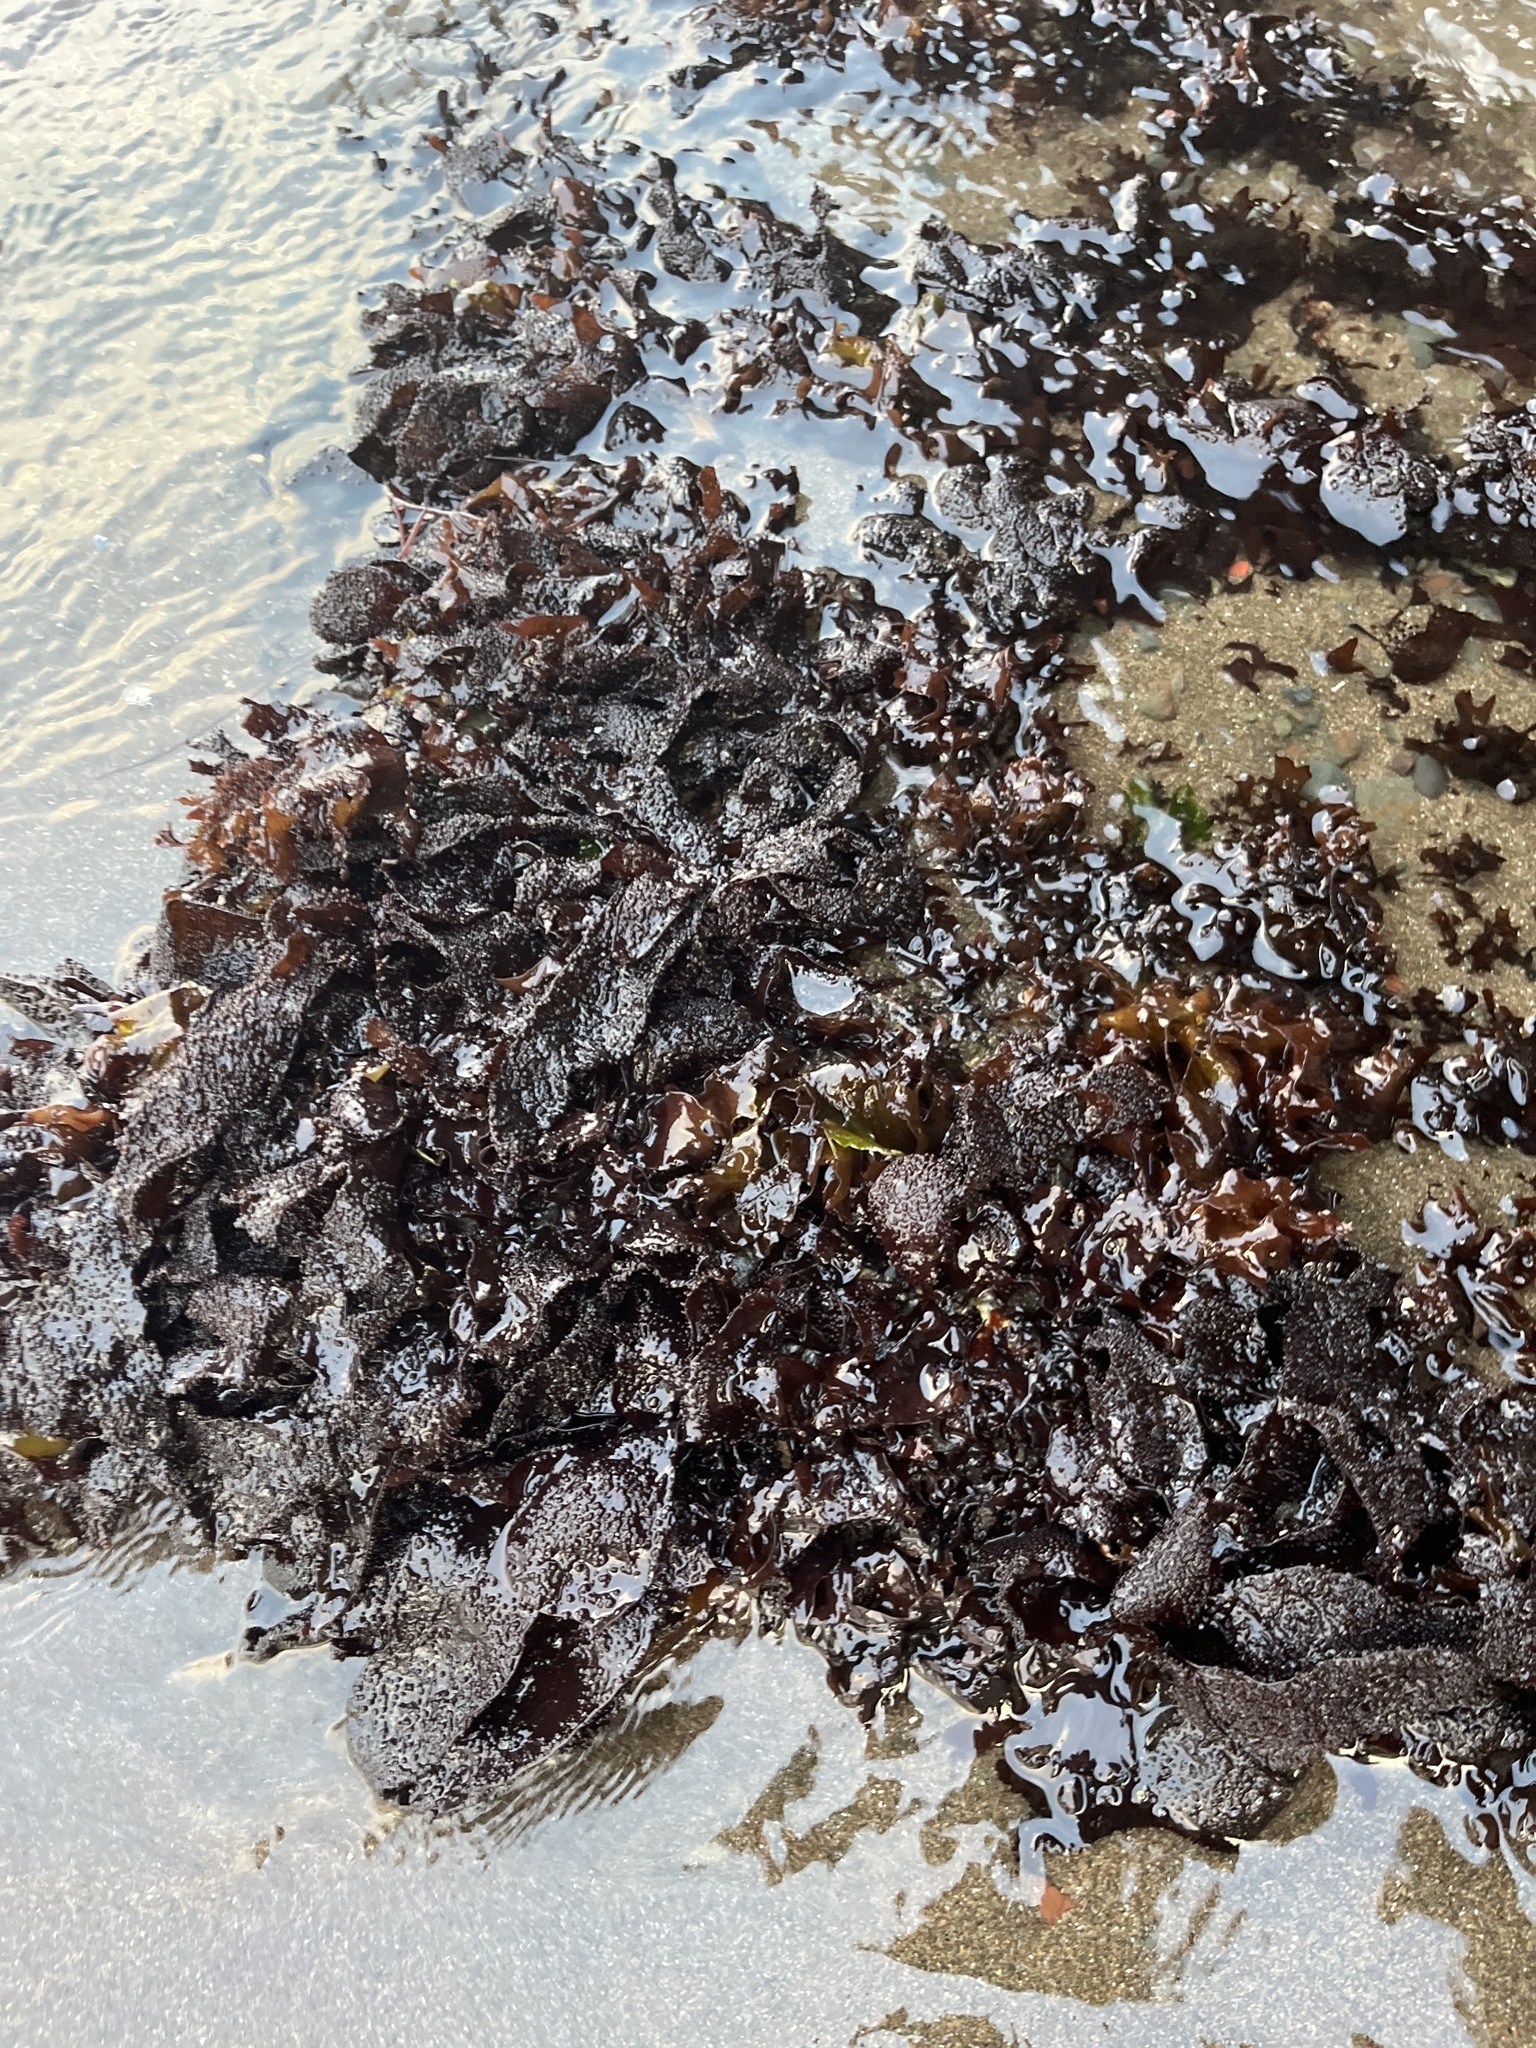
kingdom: Plantae
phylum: Rhodophyta
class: Florideophyceae
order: Gigartinales
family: Phyllophoraceae
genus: Mastocarpus
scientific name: Mastocarpus papillatus
